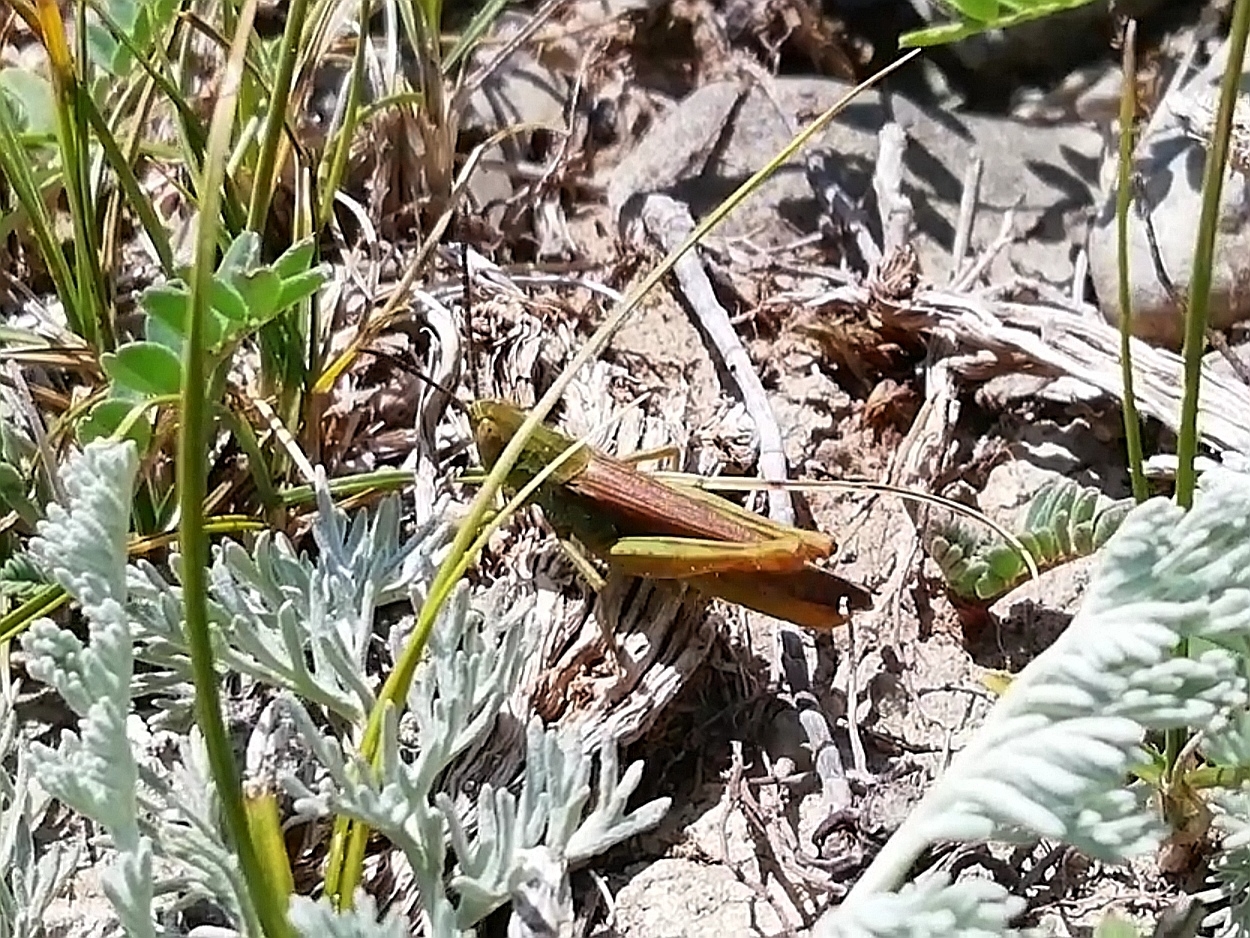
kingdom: Animalia
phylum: Arthropoda
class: Insecta
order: Orthoptera
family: Acrididae
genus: Chorthippus
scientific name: Chorthippus miramae
